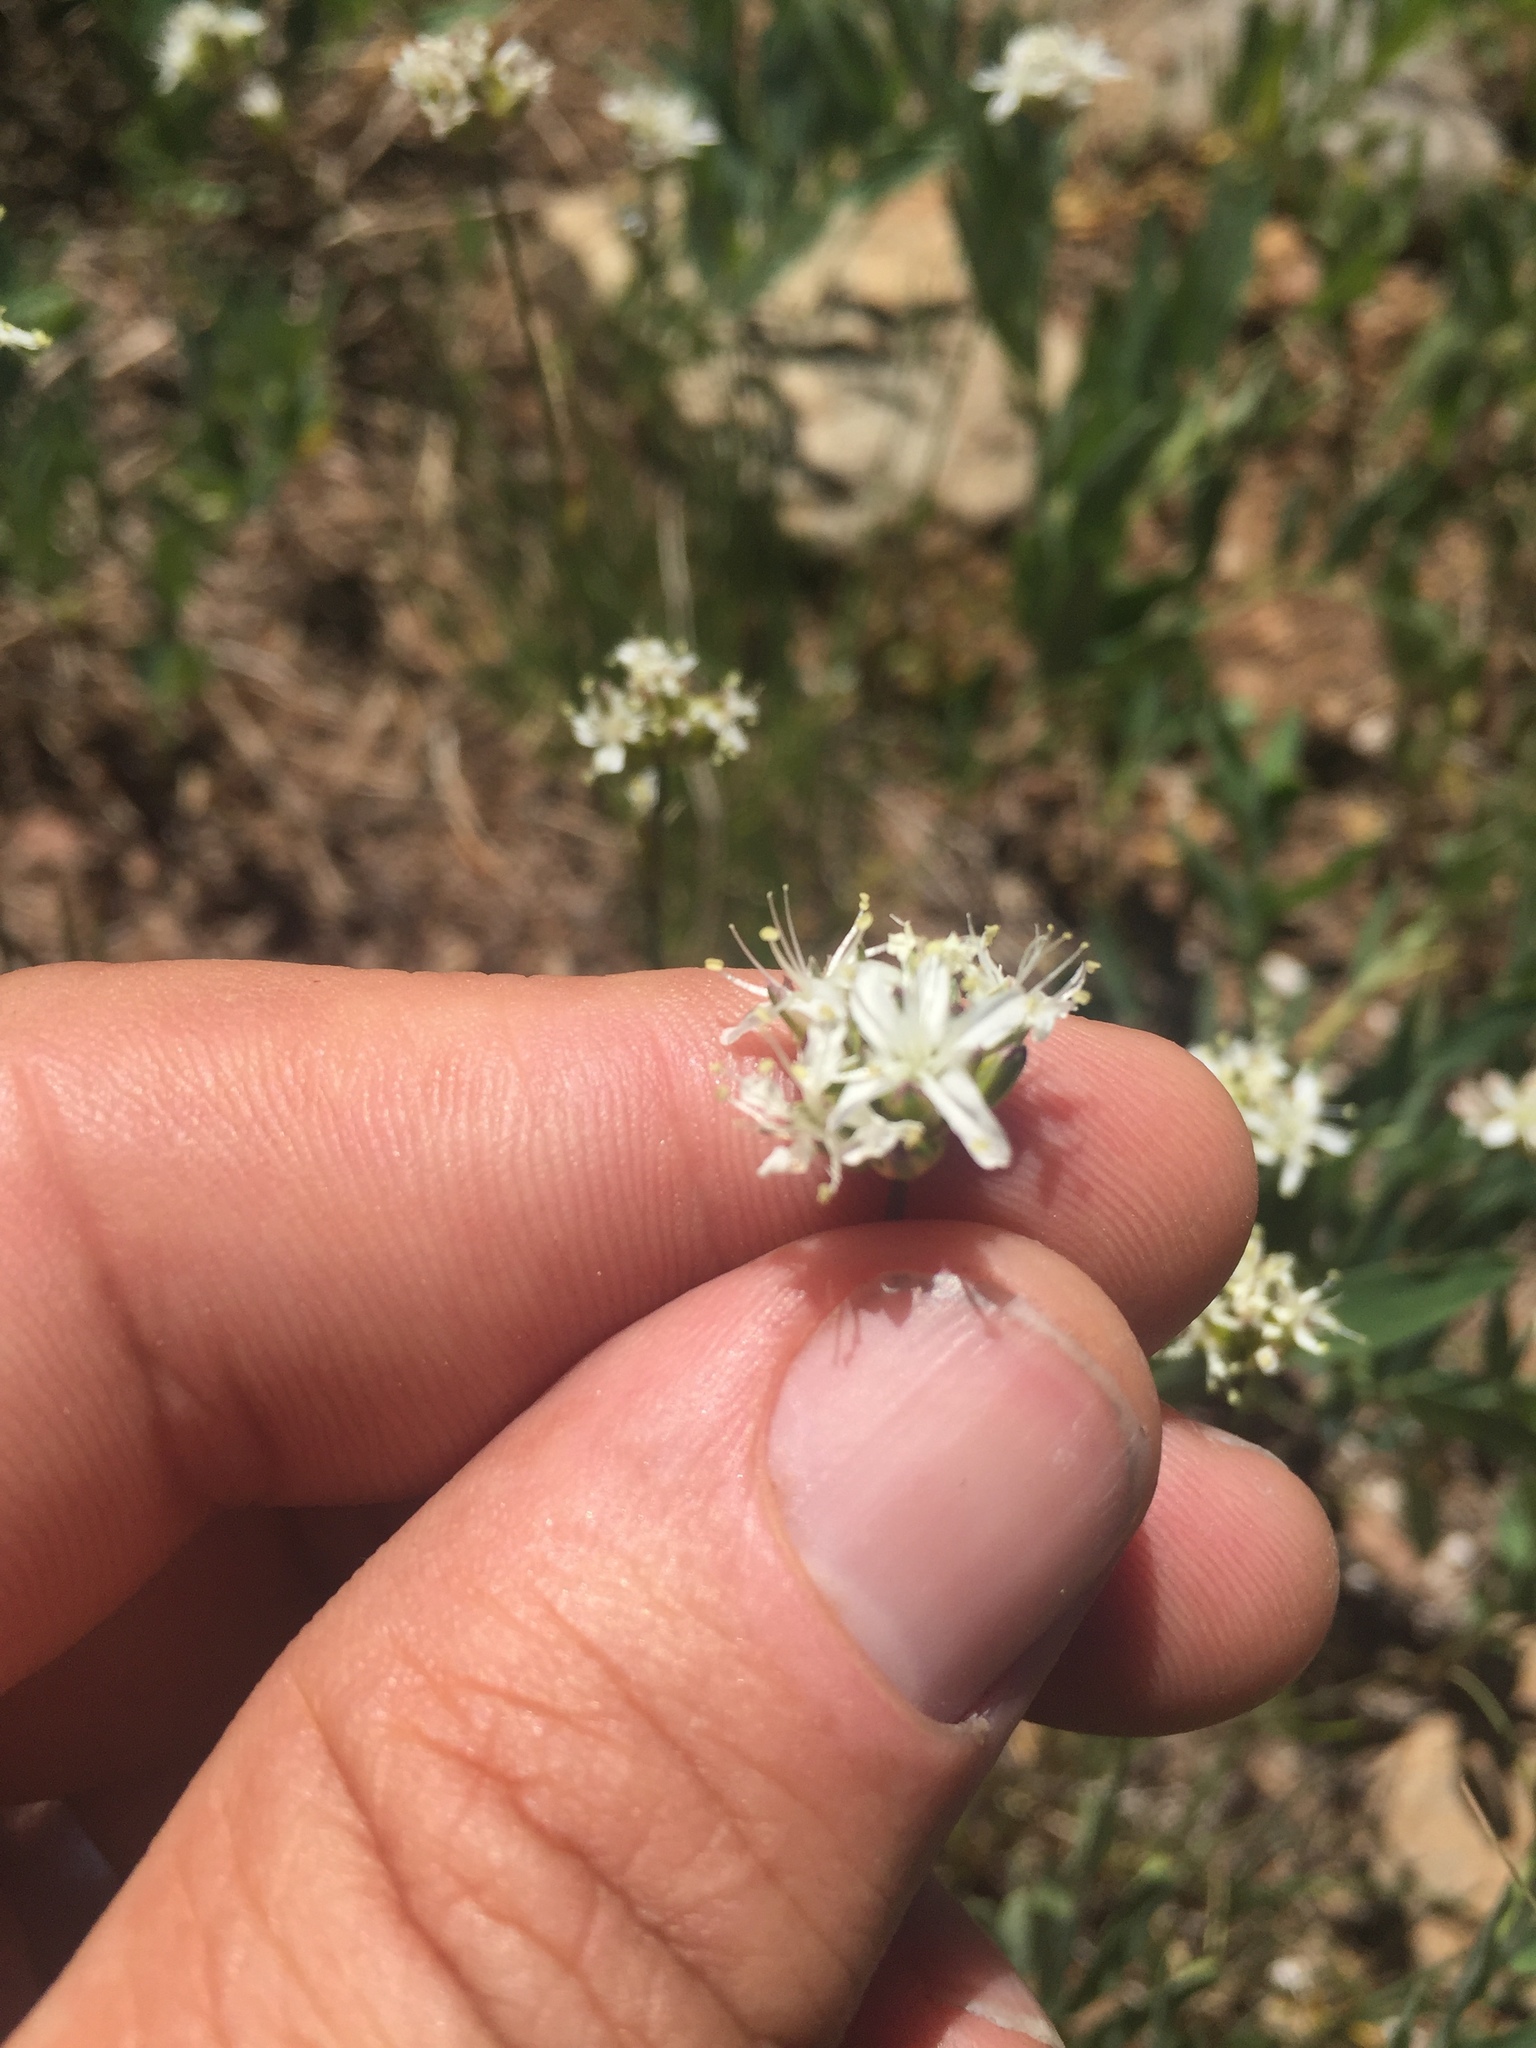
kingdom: Plantae
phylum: Tracheophyta
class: Magnoliopsida
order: Caryophyllales
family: Caryophyllaceae
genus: Eremogone
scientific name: Eremogone congesta
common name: Ballhead sandwort
